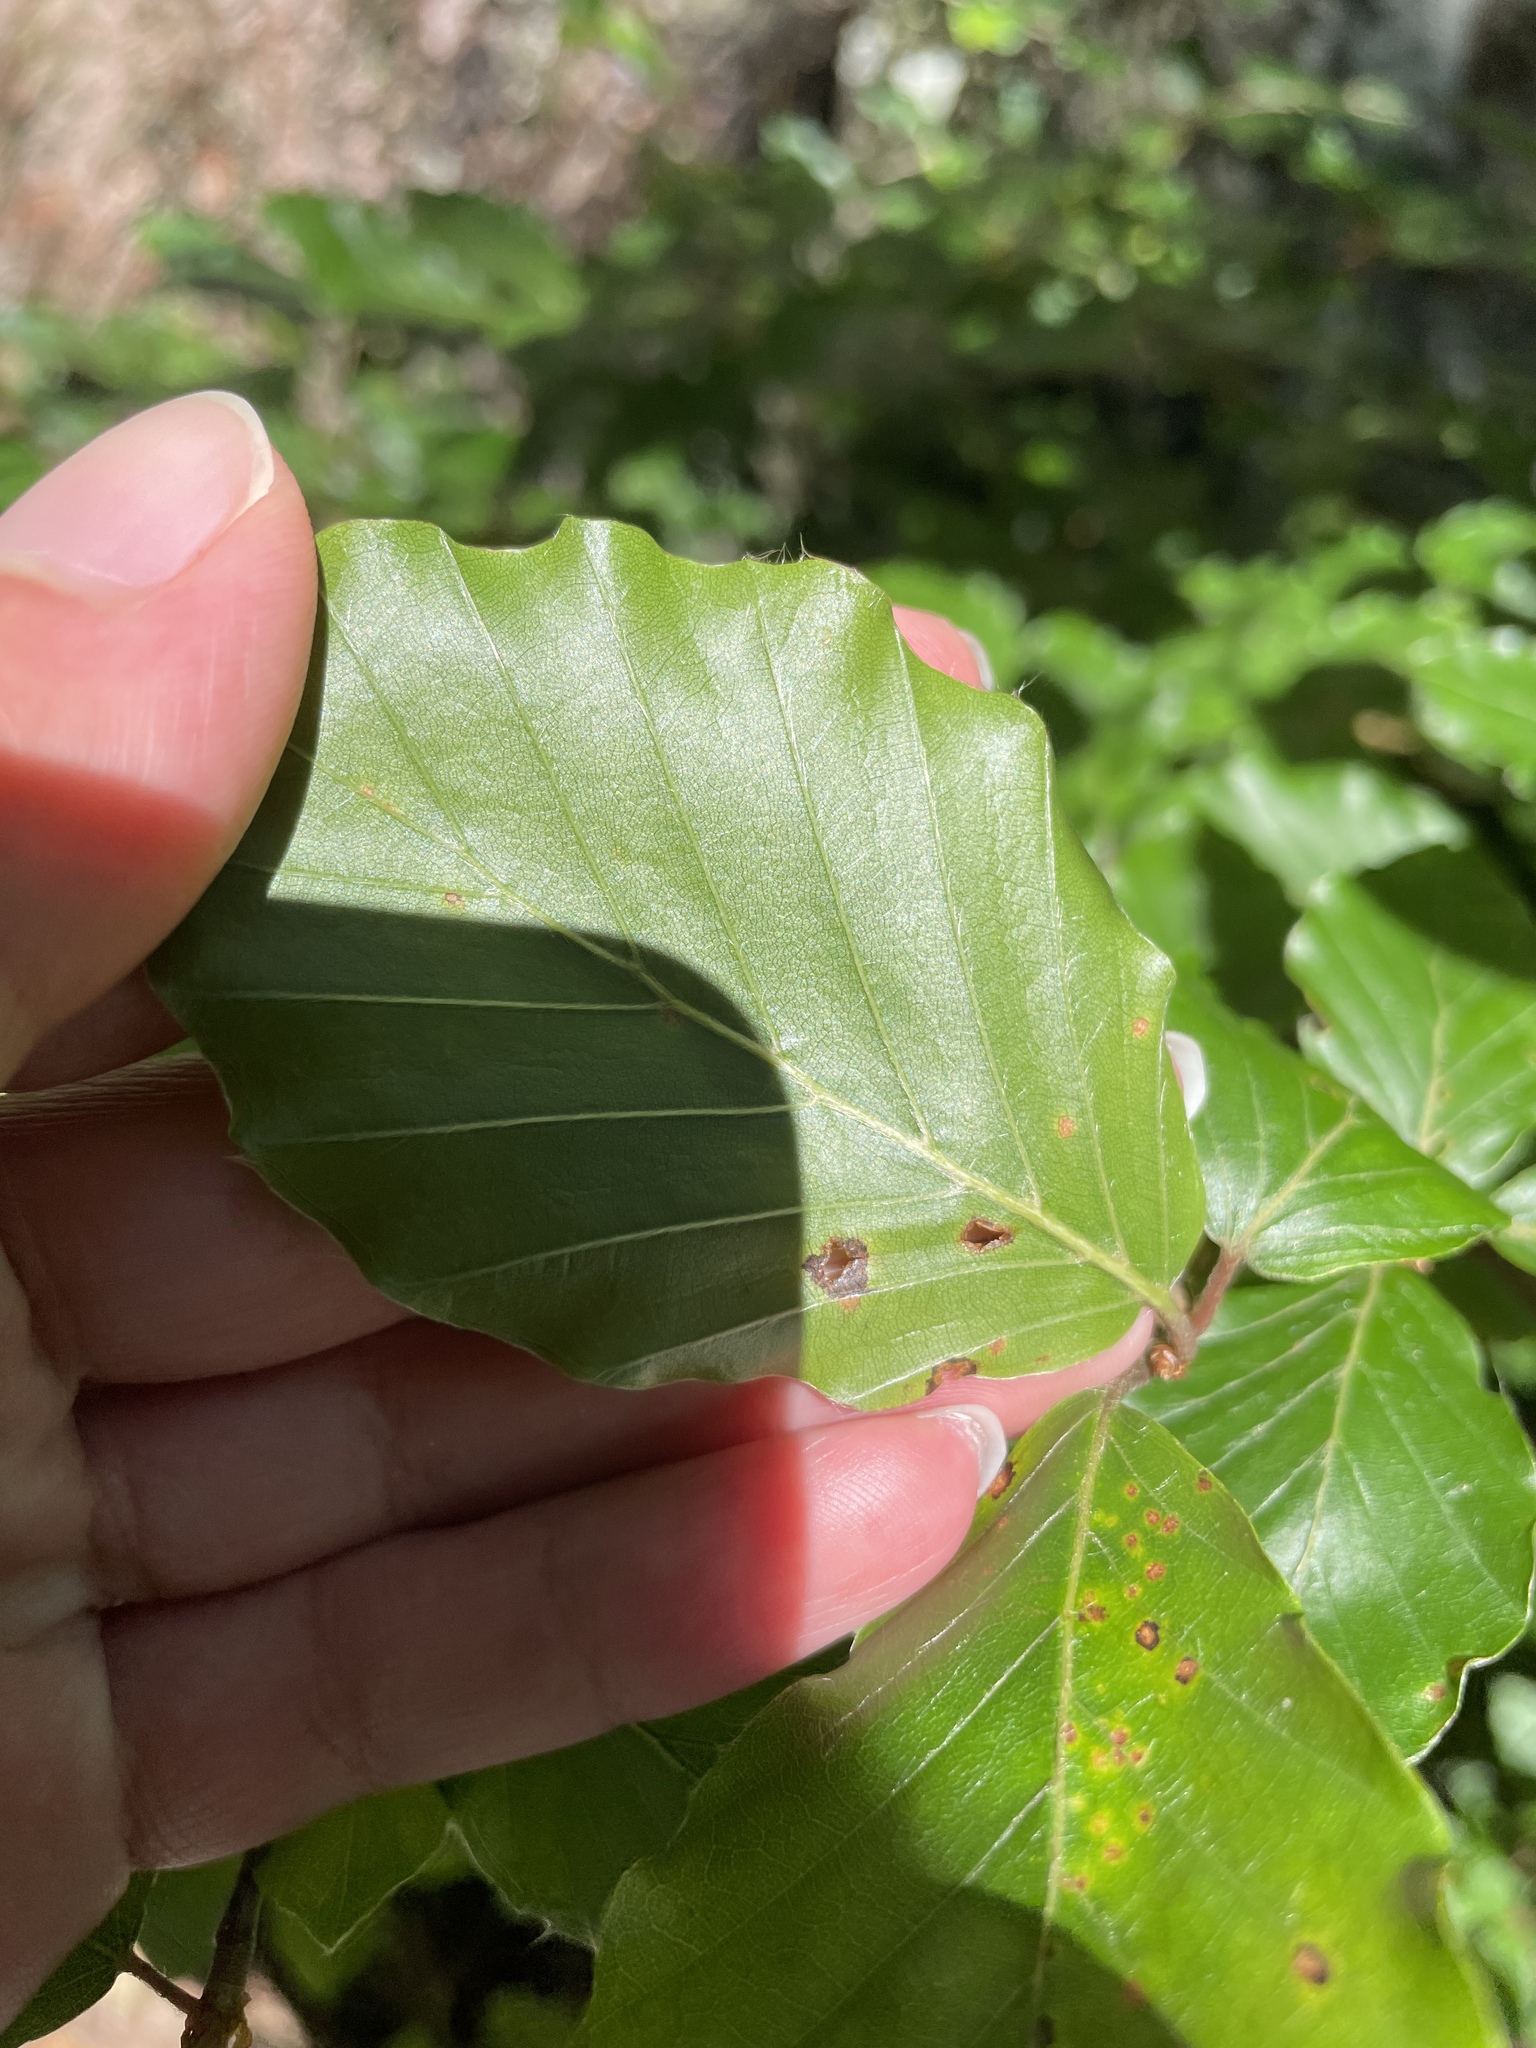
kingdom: Plantae
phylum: Tracheophyta
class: Magnoliopsida
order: Fagales
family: Fagaceae
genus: Fagus
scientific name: Fagus sylvatica
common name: Beech
